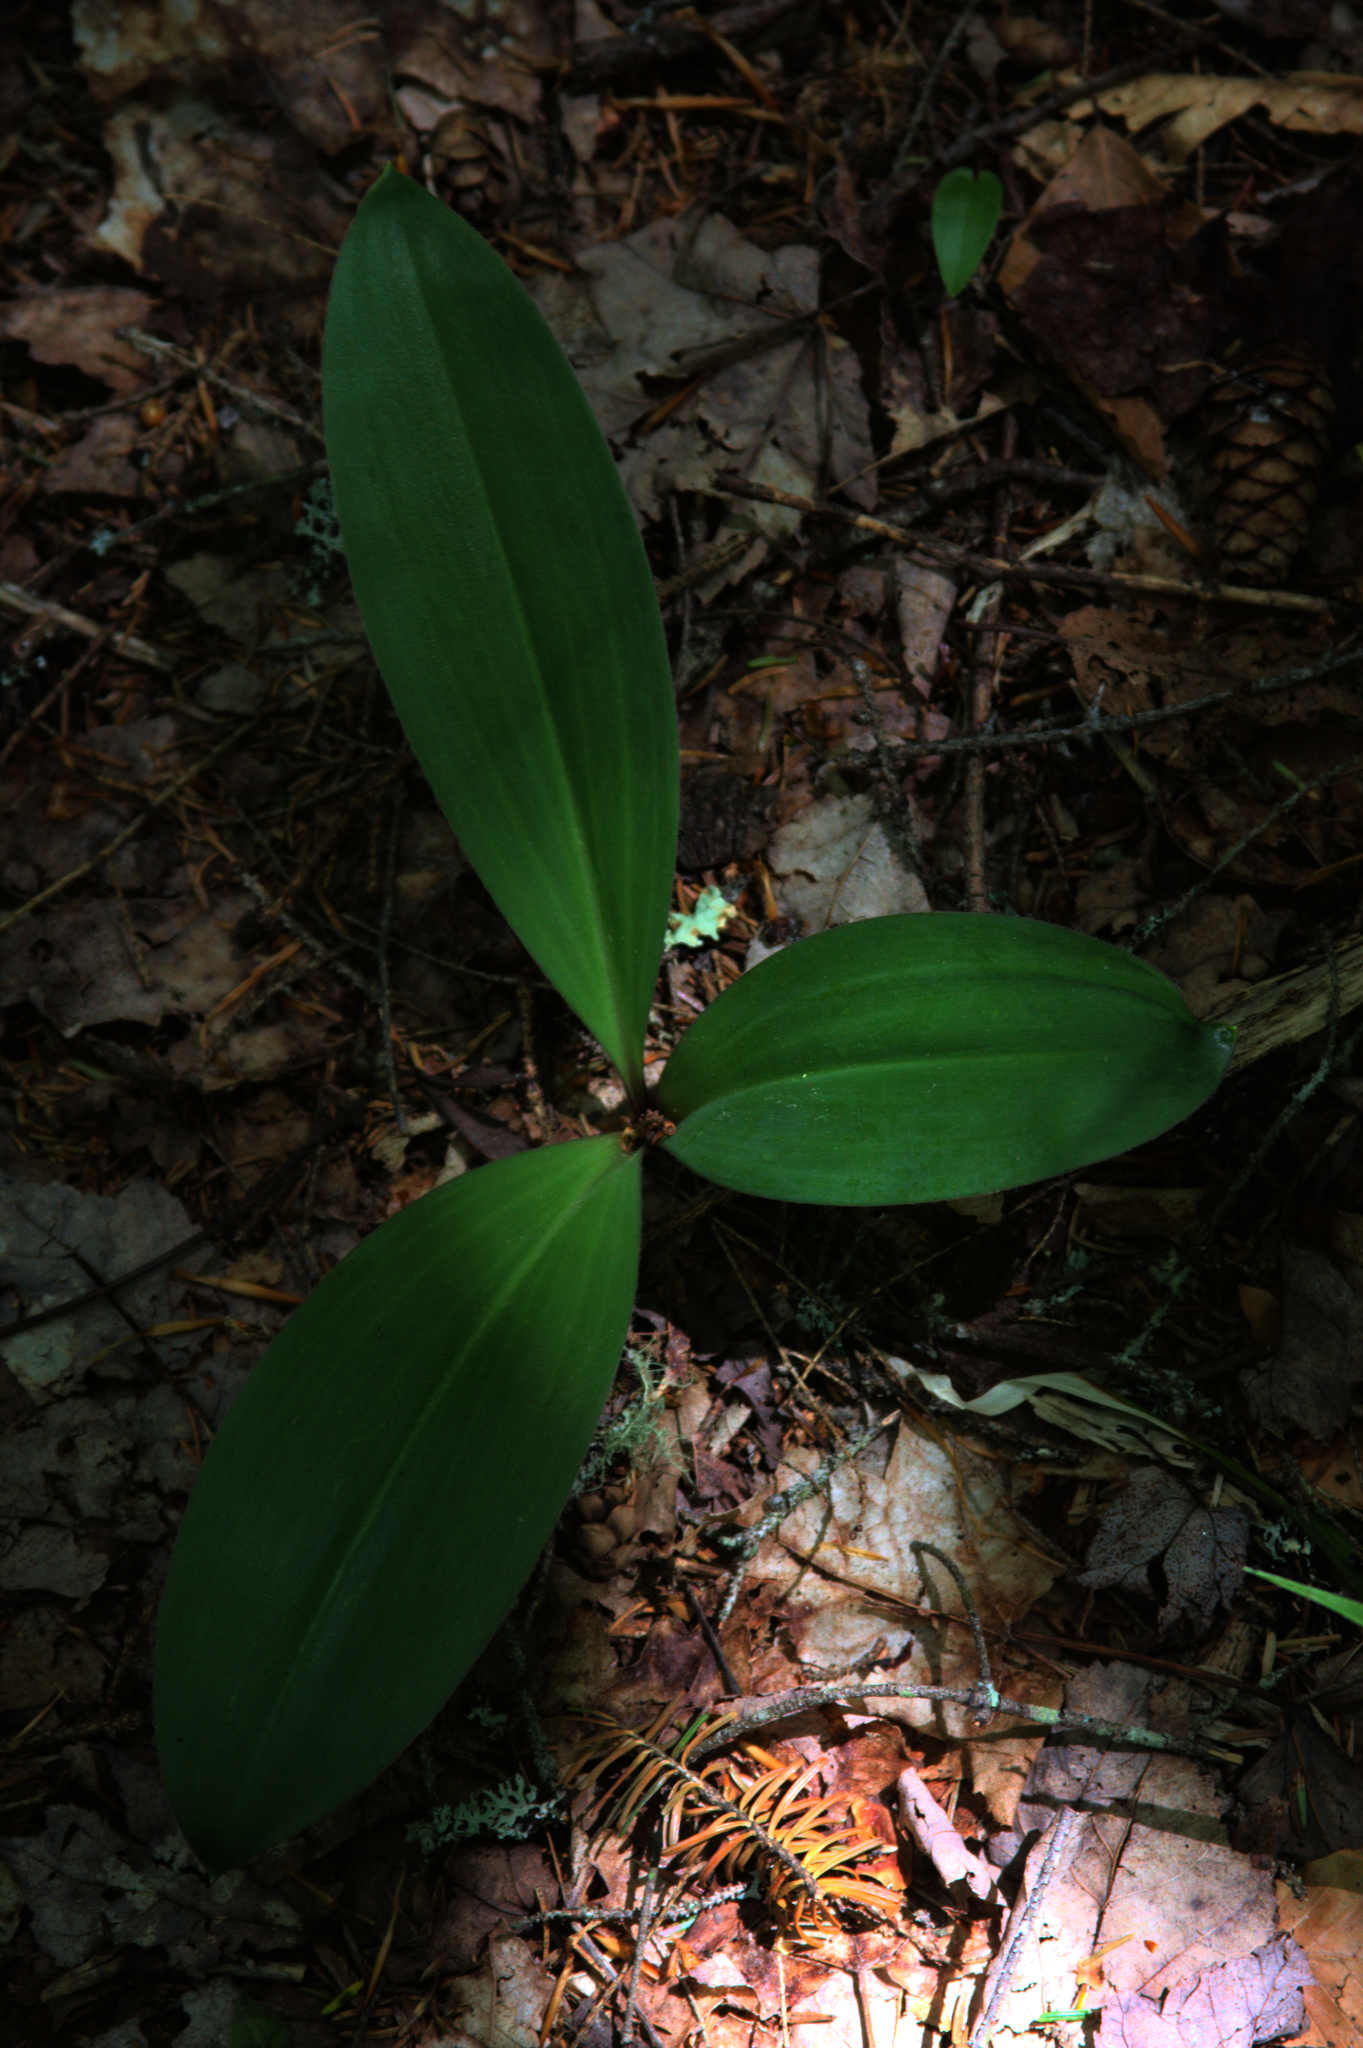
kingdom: Plantae
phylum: Tracheophyta
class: Liliopsida
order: Liliales
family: Liliaceae
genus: Clintonia
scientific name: Clintonia borealis
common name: Yellow clintonia
